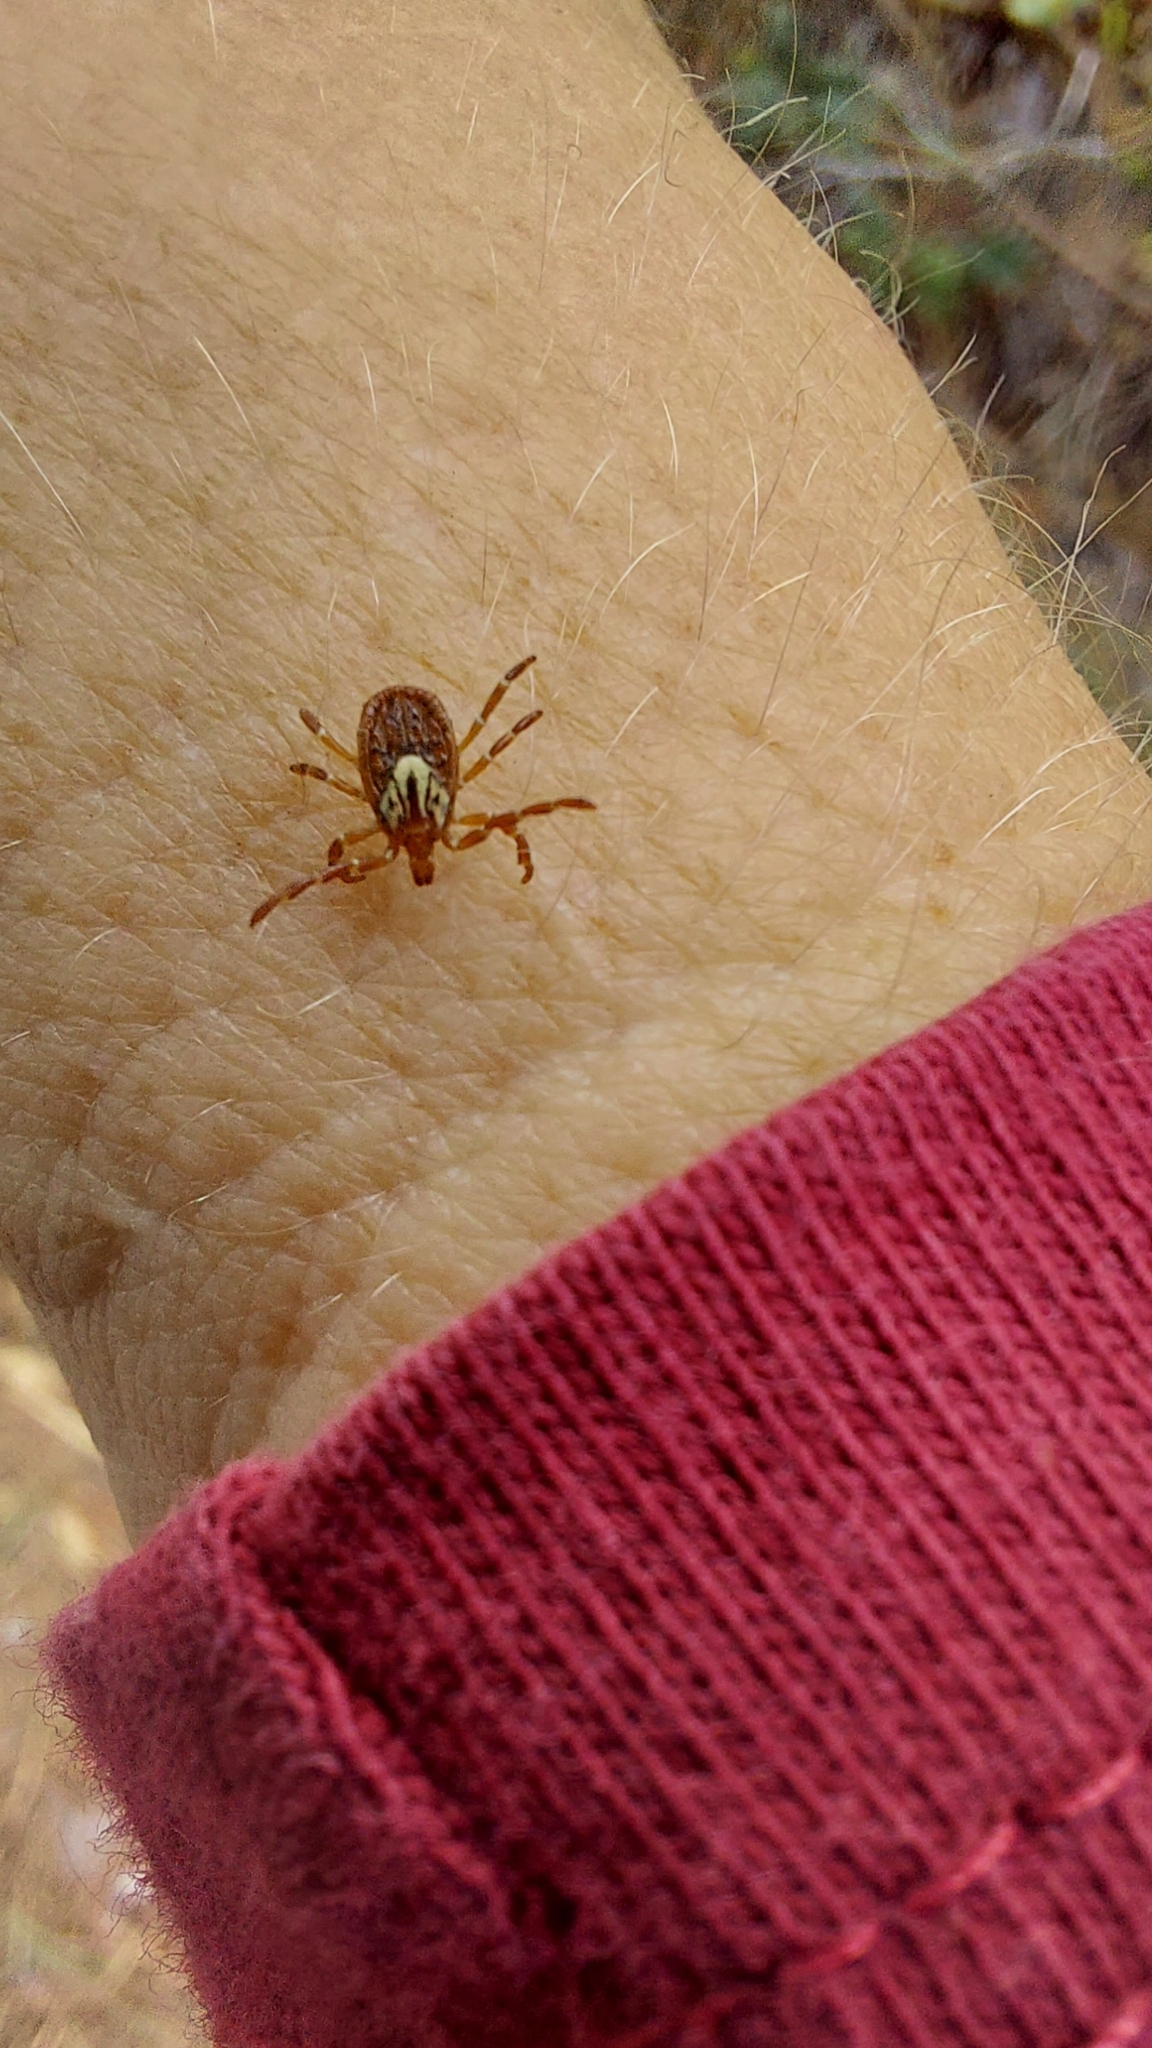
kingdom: Animalia
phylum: Arthropoda
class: Arachnida
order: Ixodida
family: Ixodidae
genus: Amblyomma
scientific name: Amblyomma maculatum
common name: Gulf coast tick
